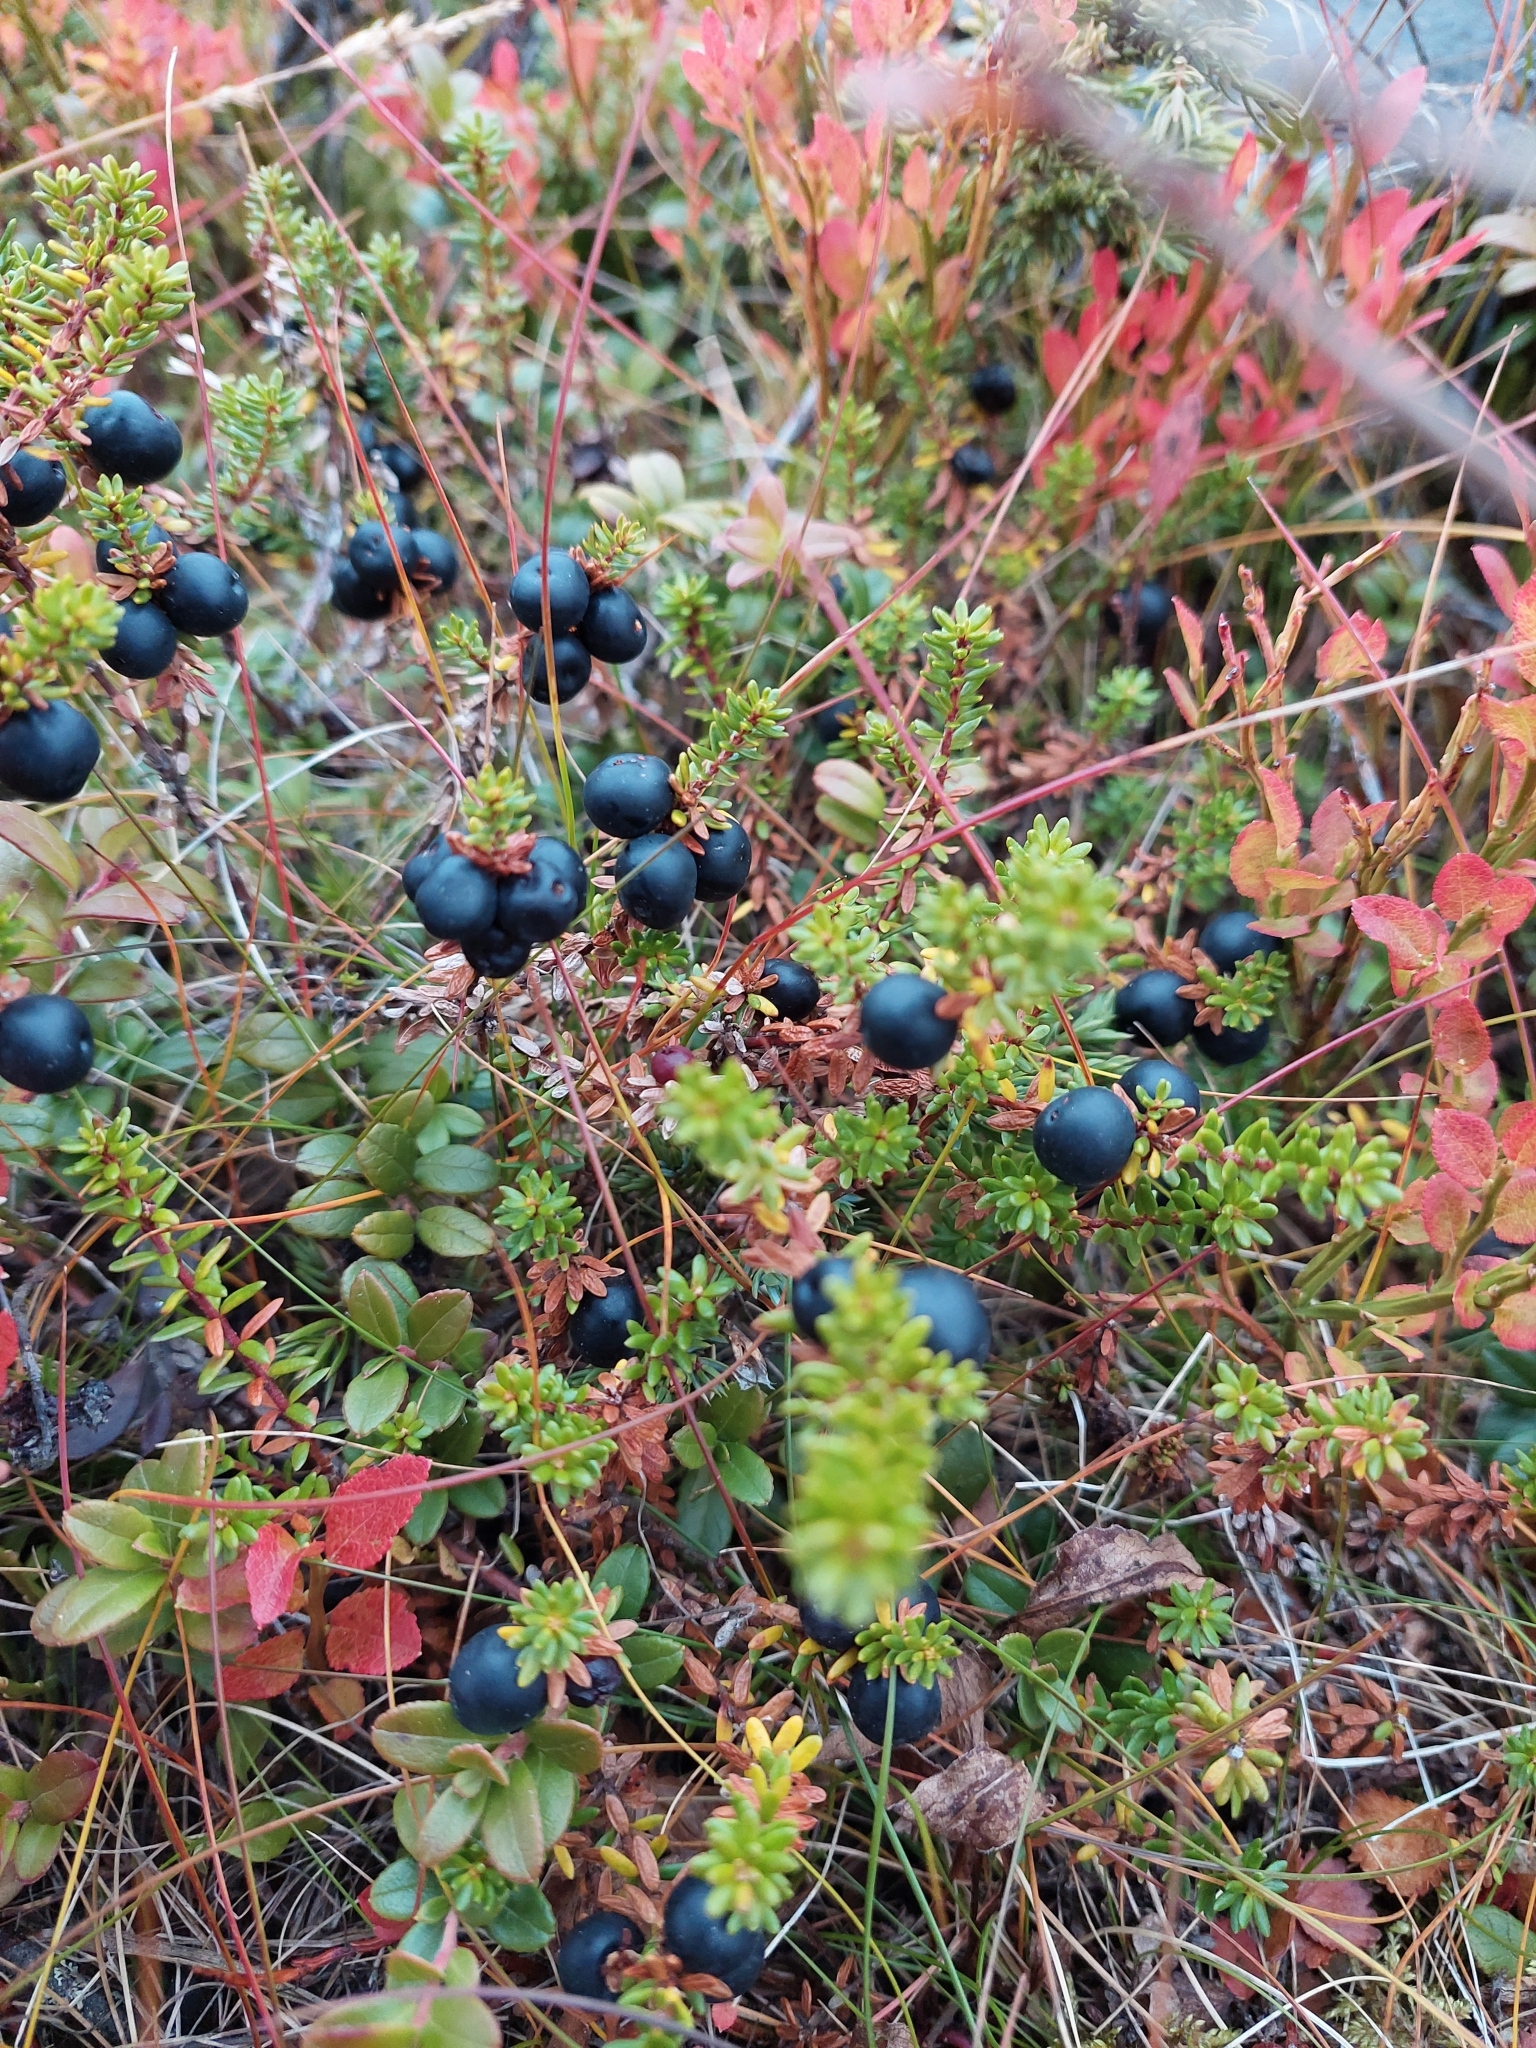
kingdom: Plantae
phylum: Tracheophyta
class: Magnoliopsida
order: Ericales
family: Ericaceae
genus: Empetrum
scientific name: Empetrum nigrum
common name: Black crowberry
